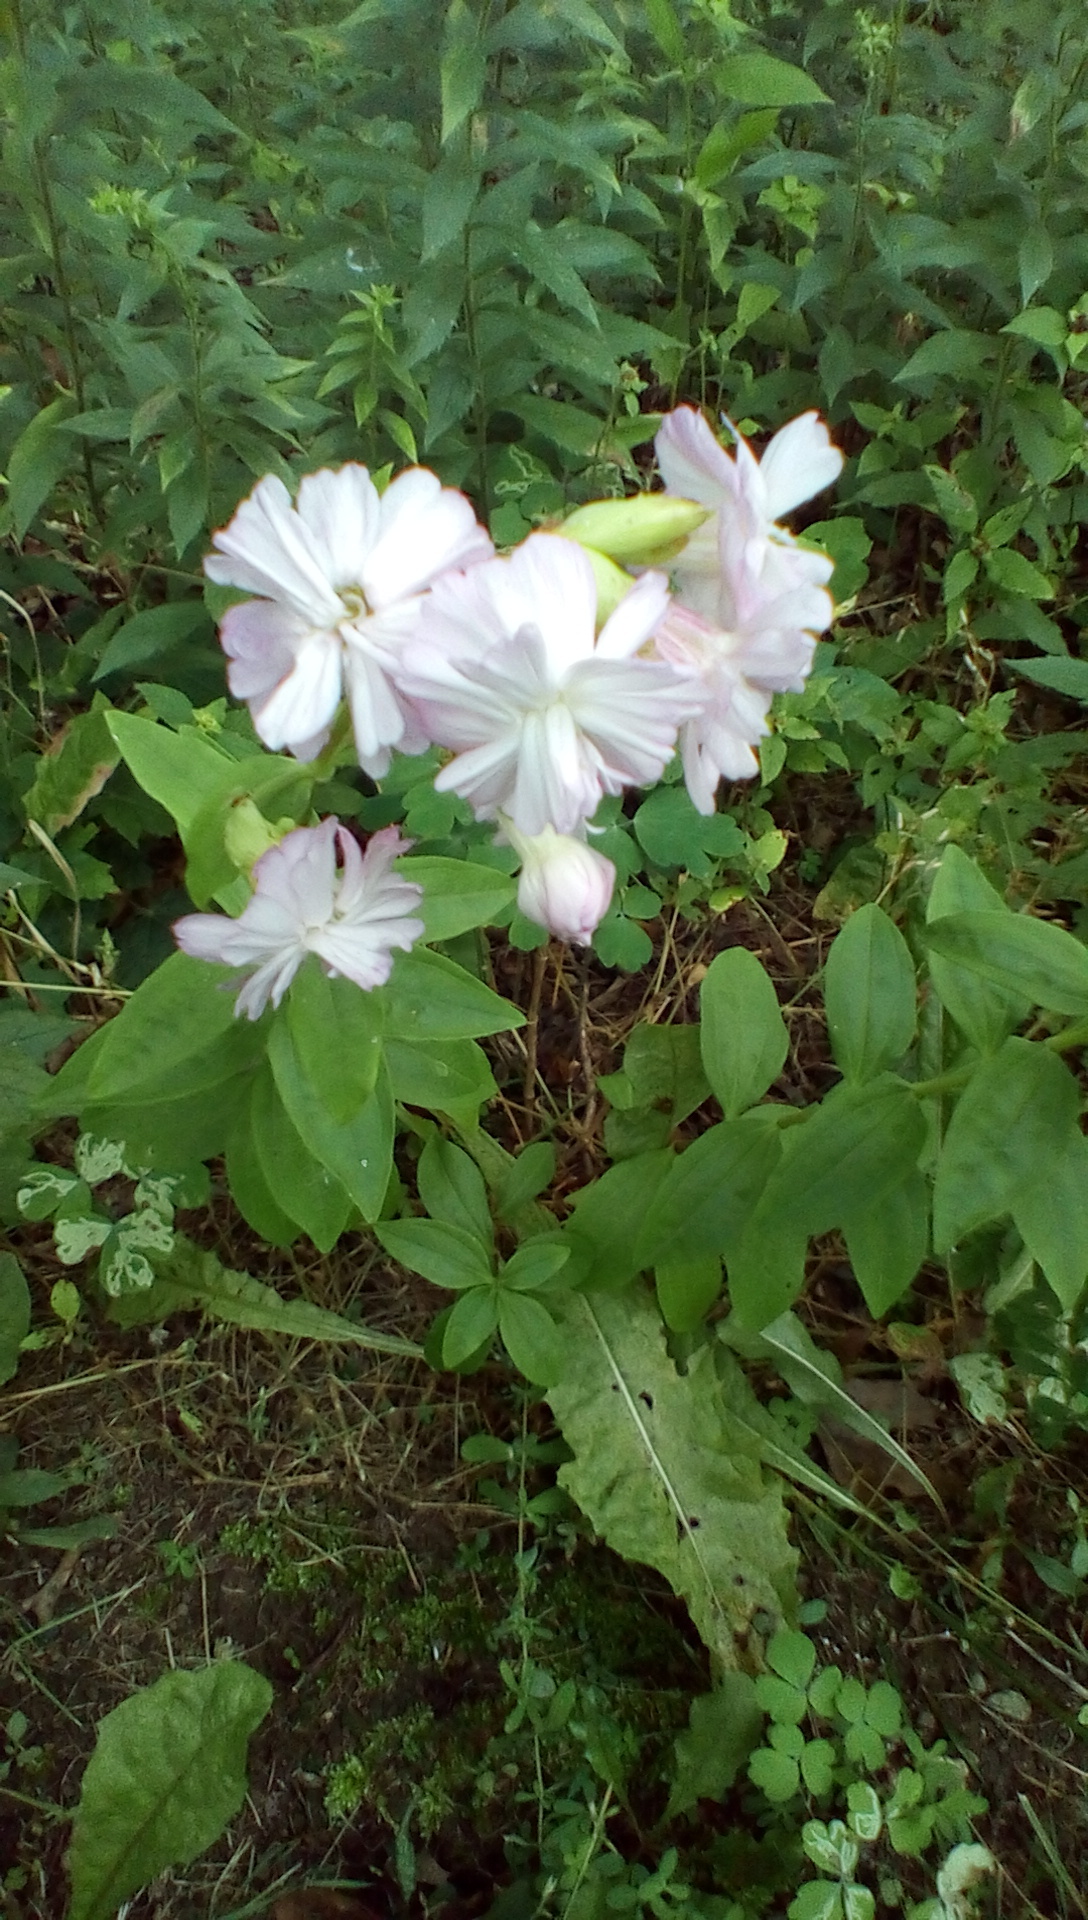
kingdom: Plantae
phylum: Tracheophyta
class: Magnoliopsida
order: Caryophyllales
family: Caryophyllaceae
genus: Saponaria
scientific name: Saponaria officinalis
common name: Soapwort
